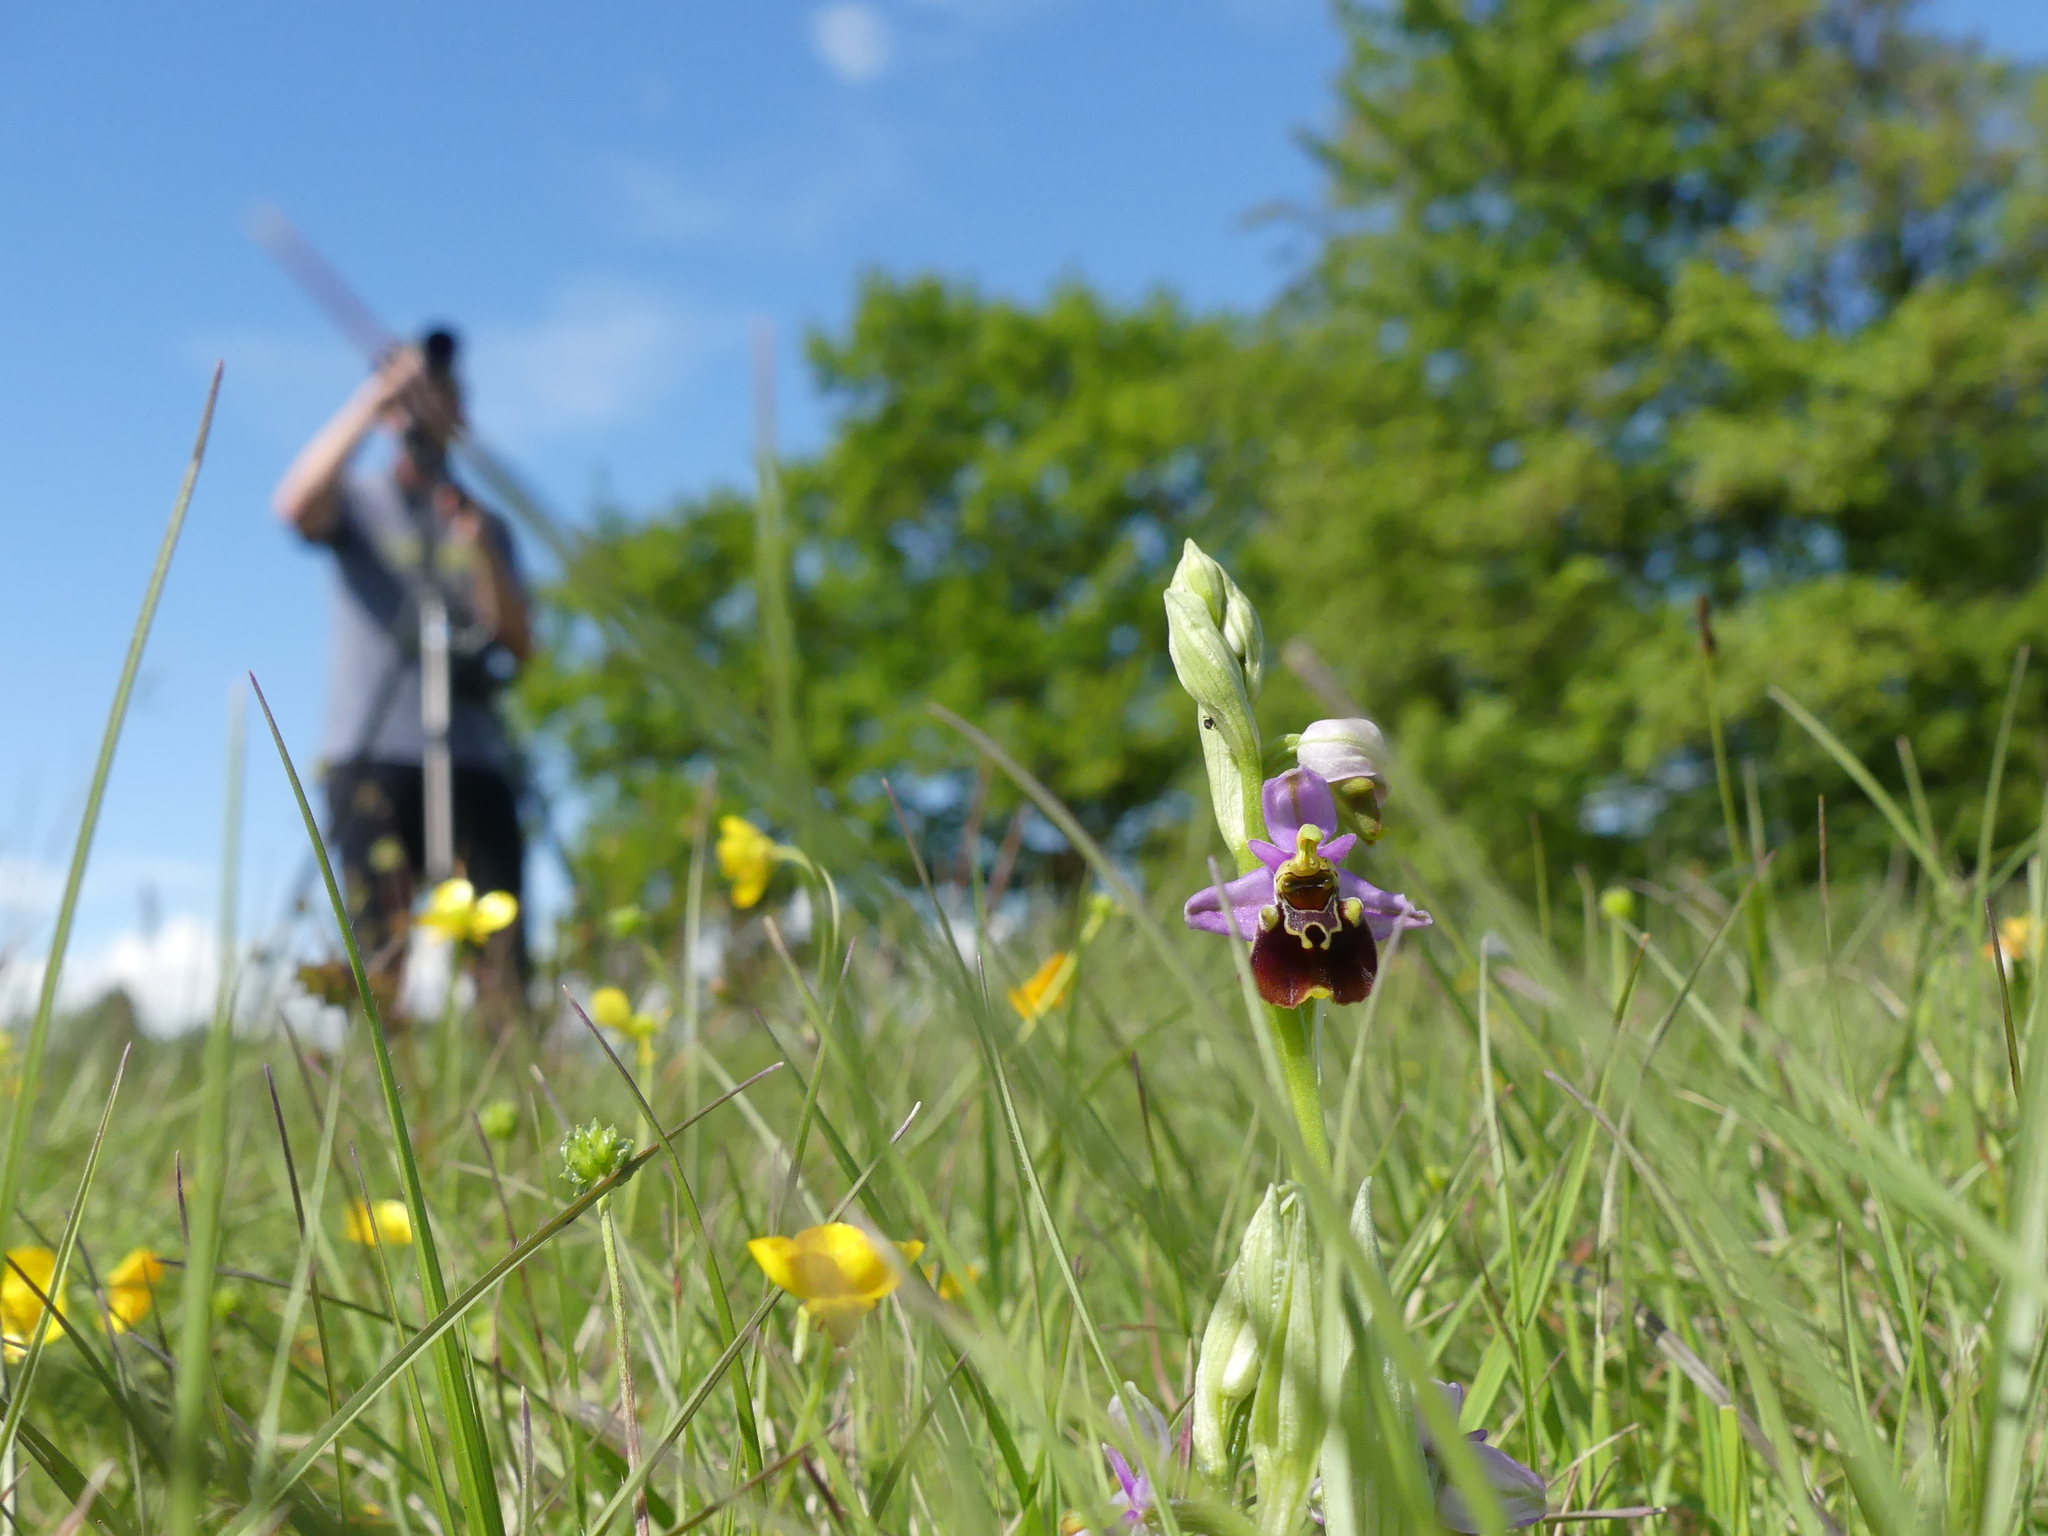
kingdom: Plantae
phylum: Tracheophyta
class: Liliopsida
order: Asparagales
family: Orchidaceae
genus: Ophrys
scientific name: Ophrys holosericea
